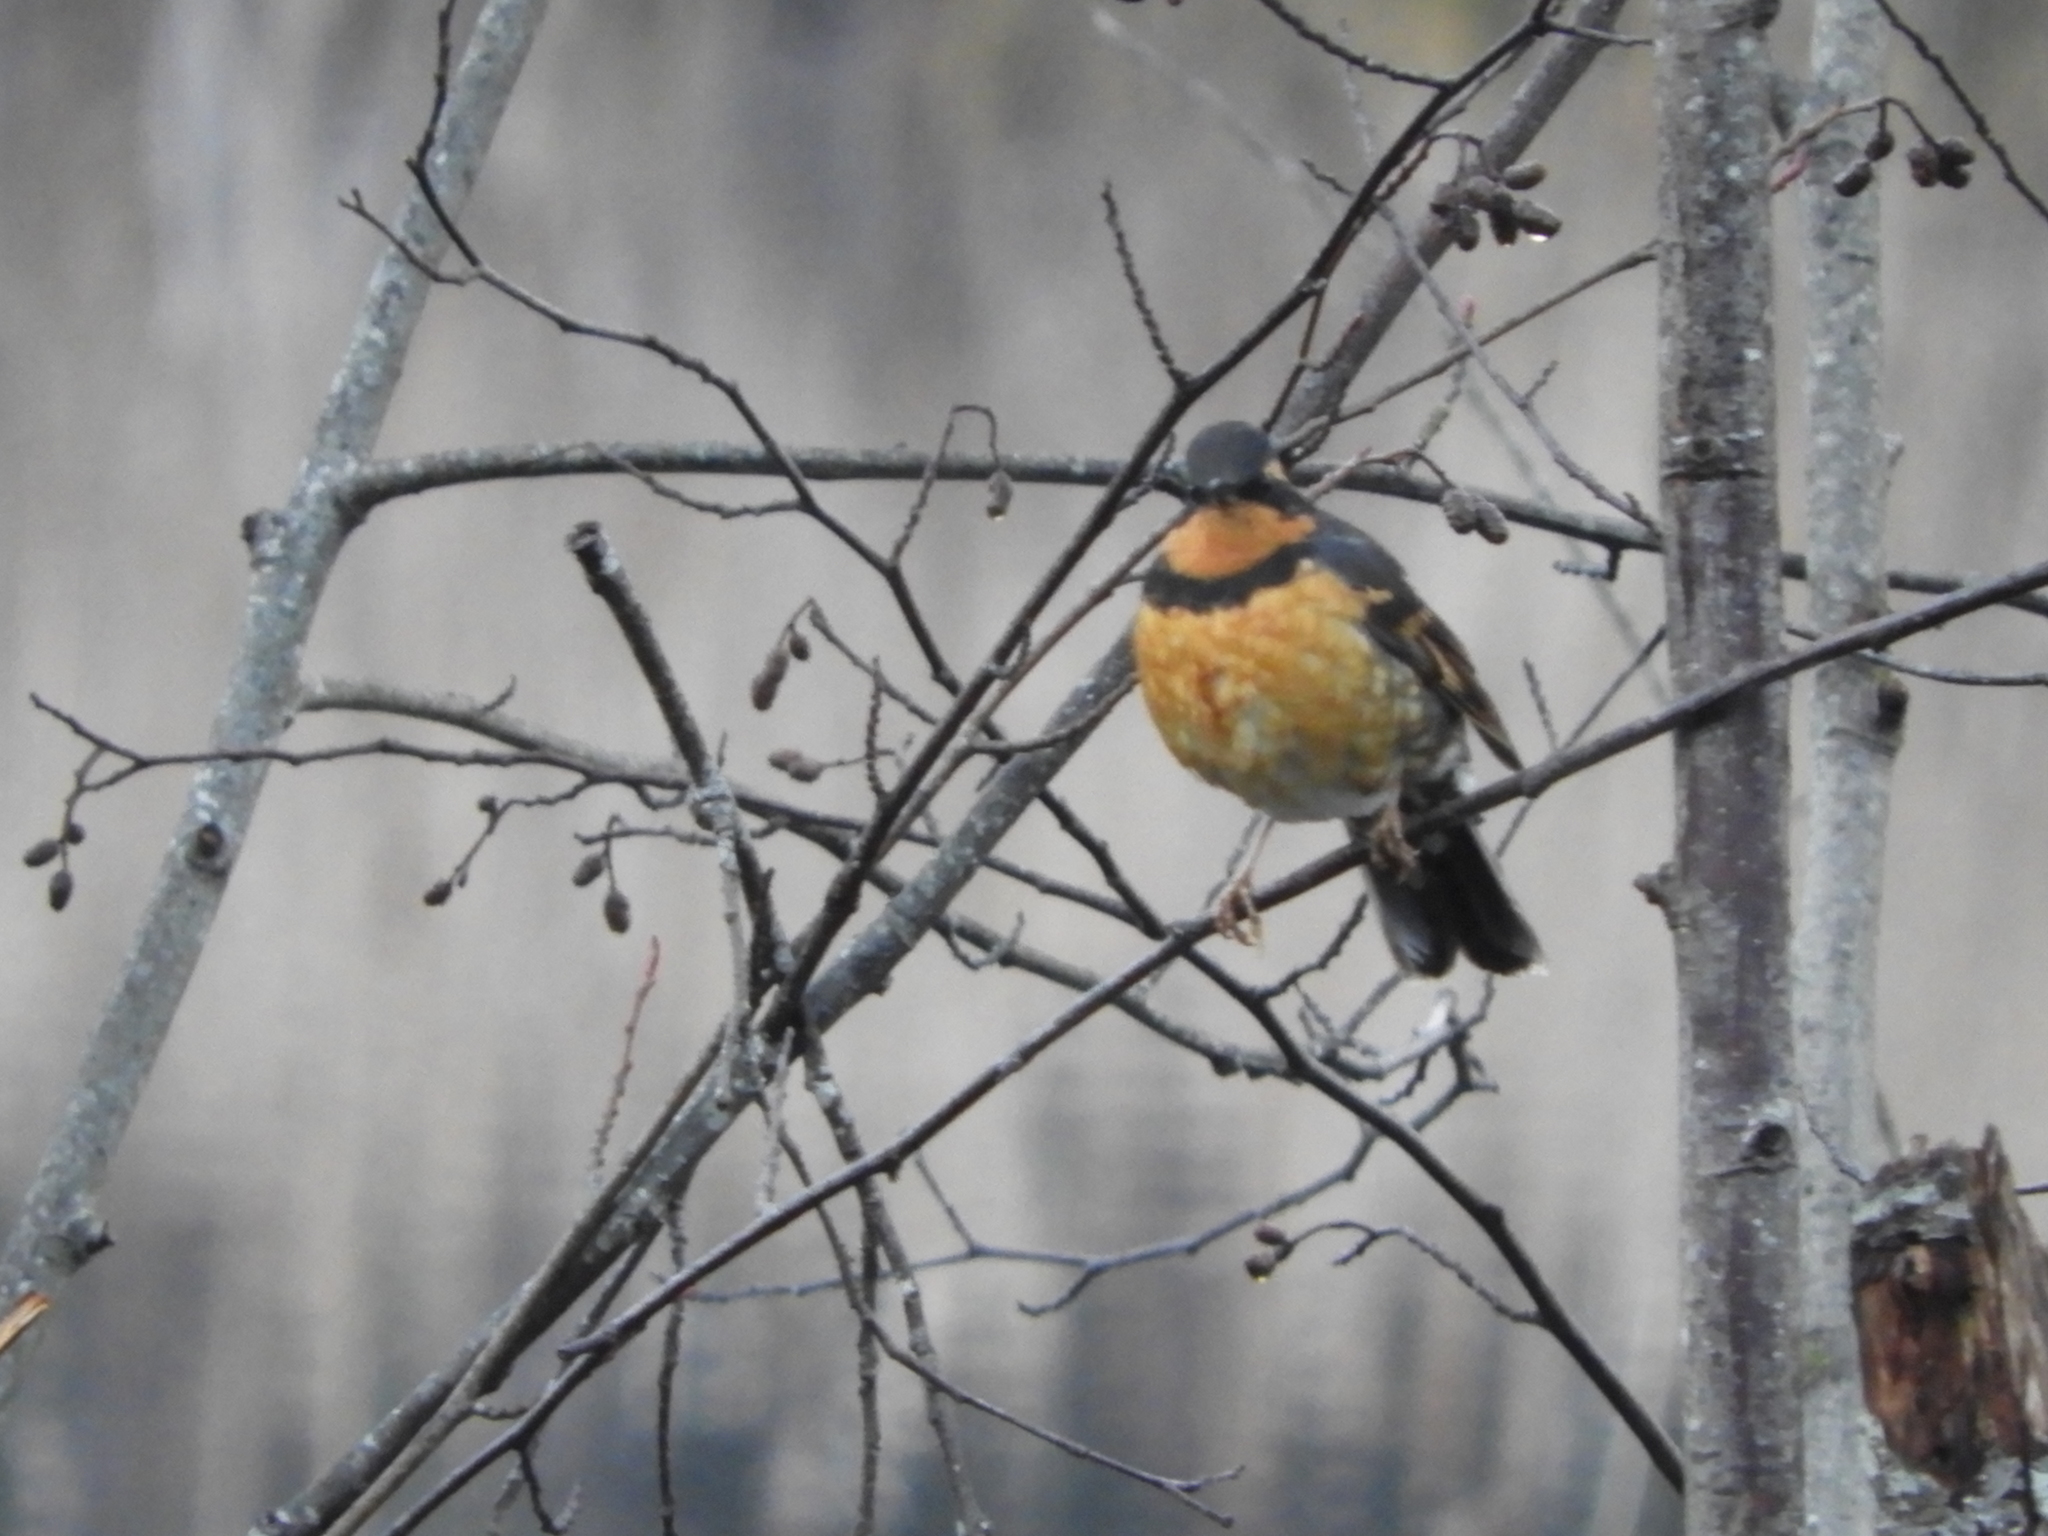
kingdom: Animalia
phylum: Chordata
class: Aves
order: Passeriformes
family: Turdidae
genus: Ixoreus
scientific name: Ixoreus naevius
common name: Varied thrush
